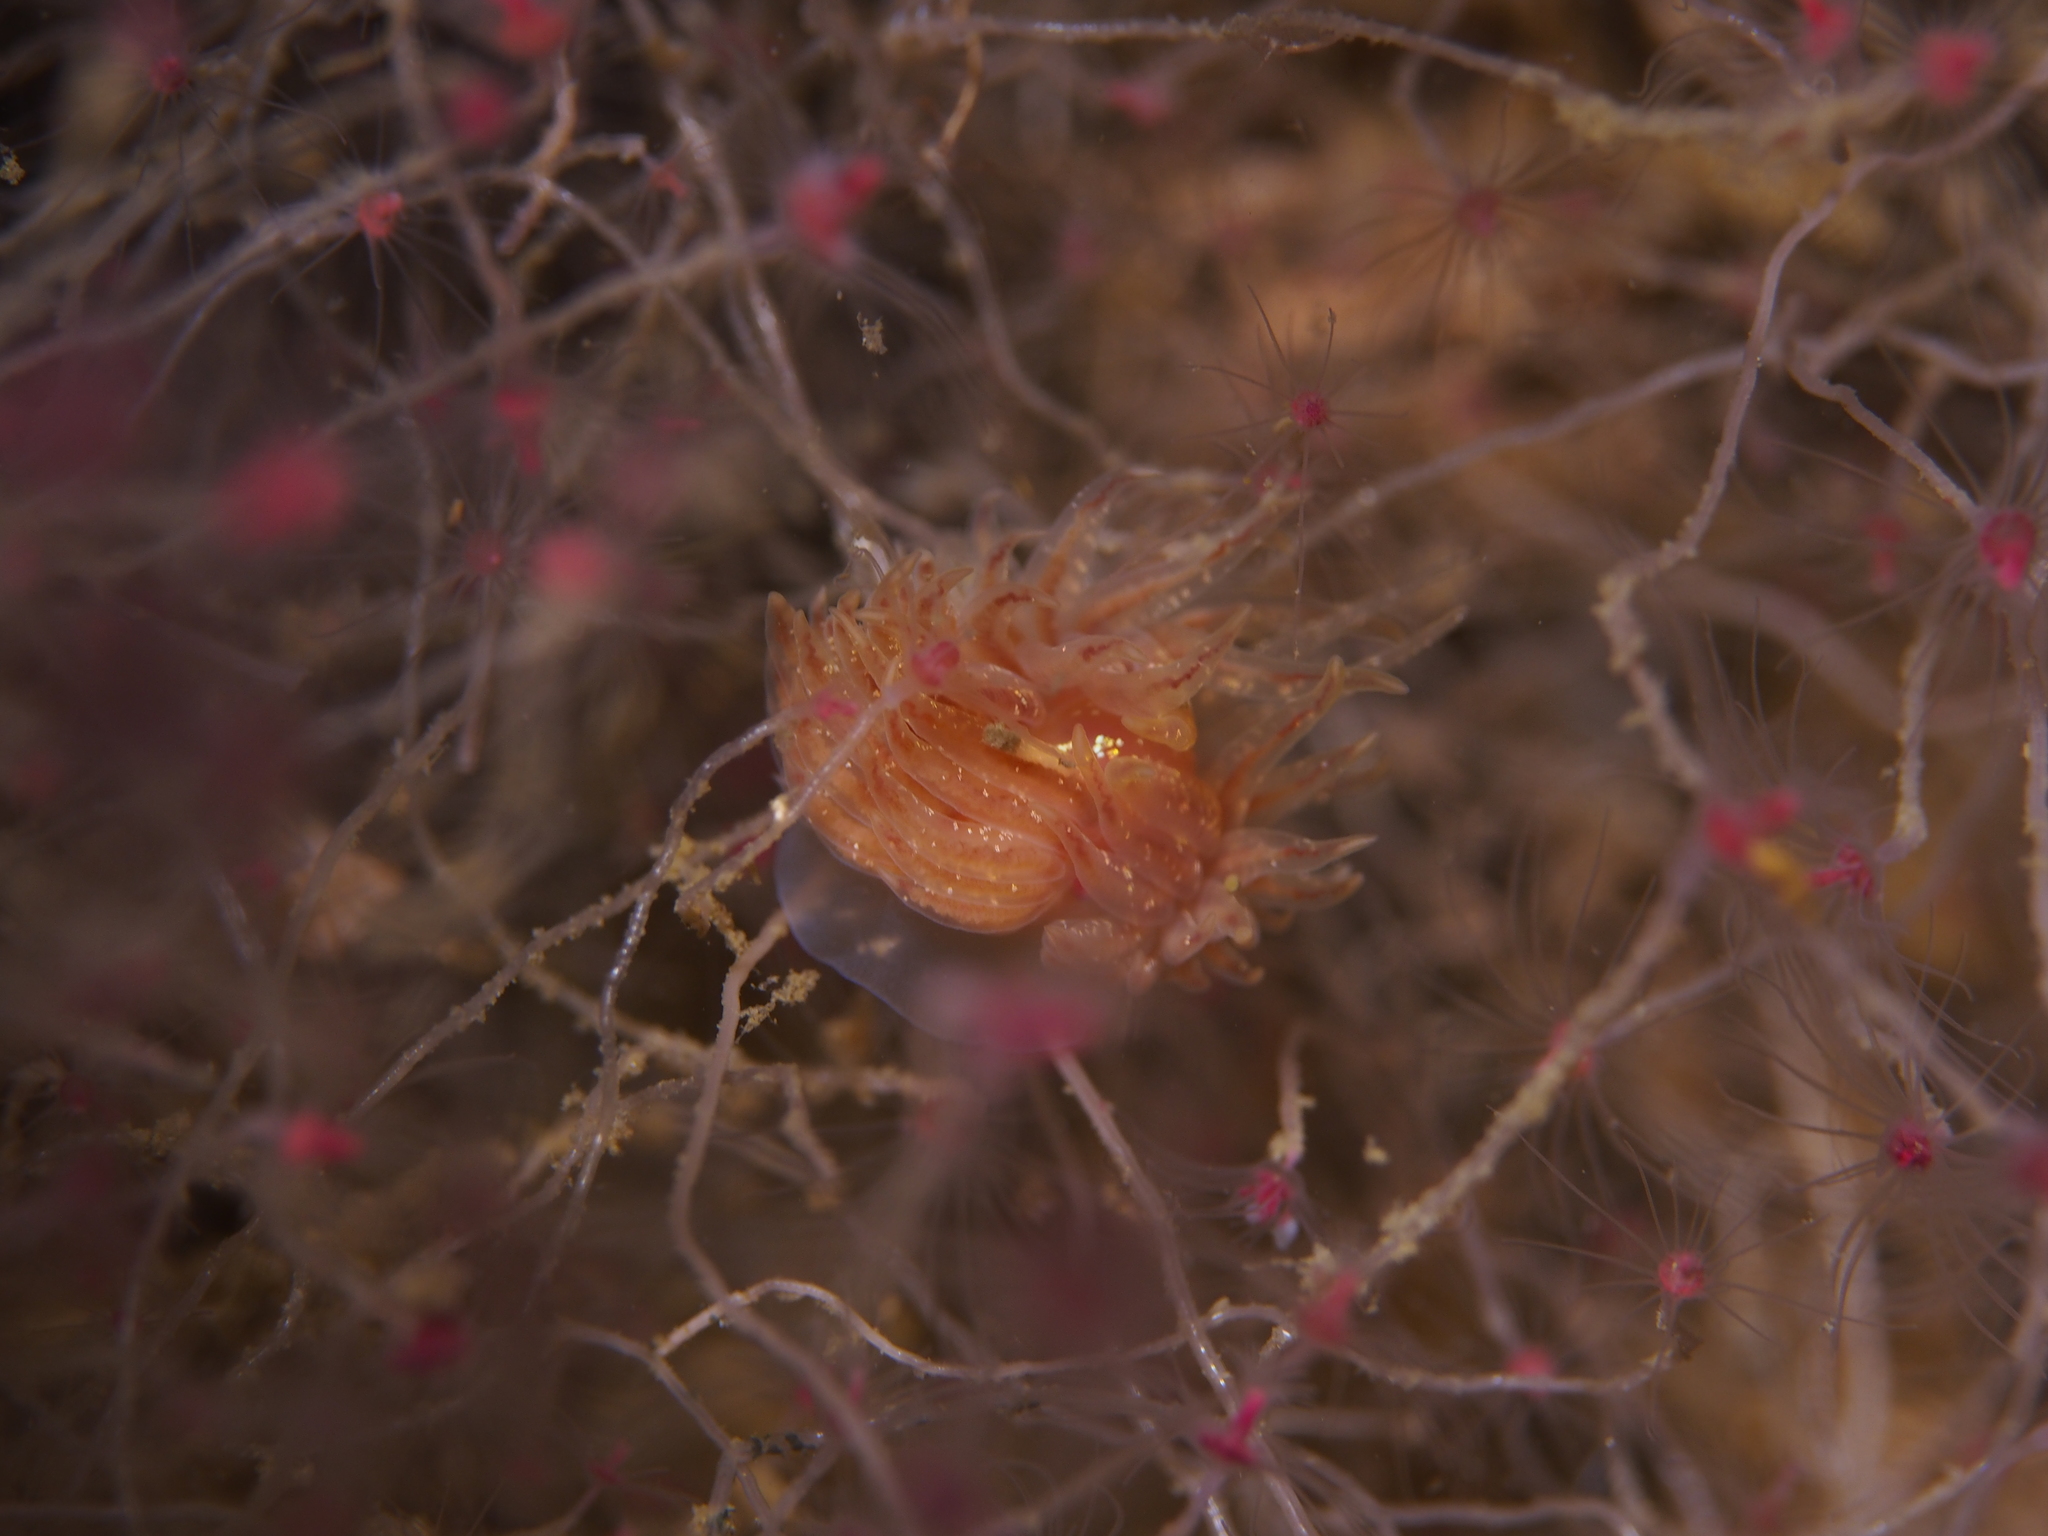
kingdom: Animalia
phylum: Mollusca
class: Gastropoda
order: Nudibranchia
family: Cumanotidae
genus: Cumanotus
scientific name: Cumanotus beaumonti
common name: Polyp aeolis
